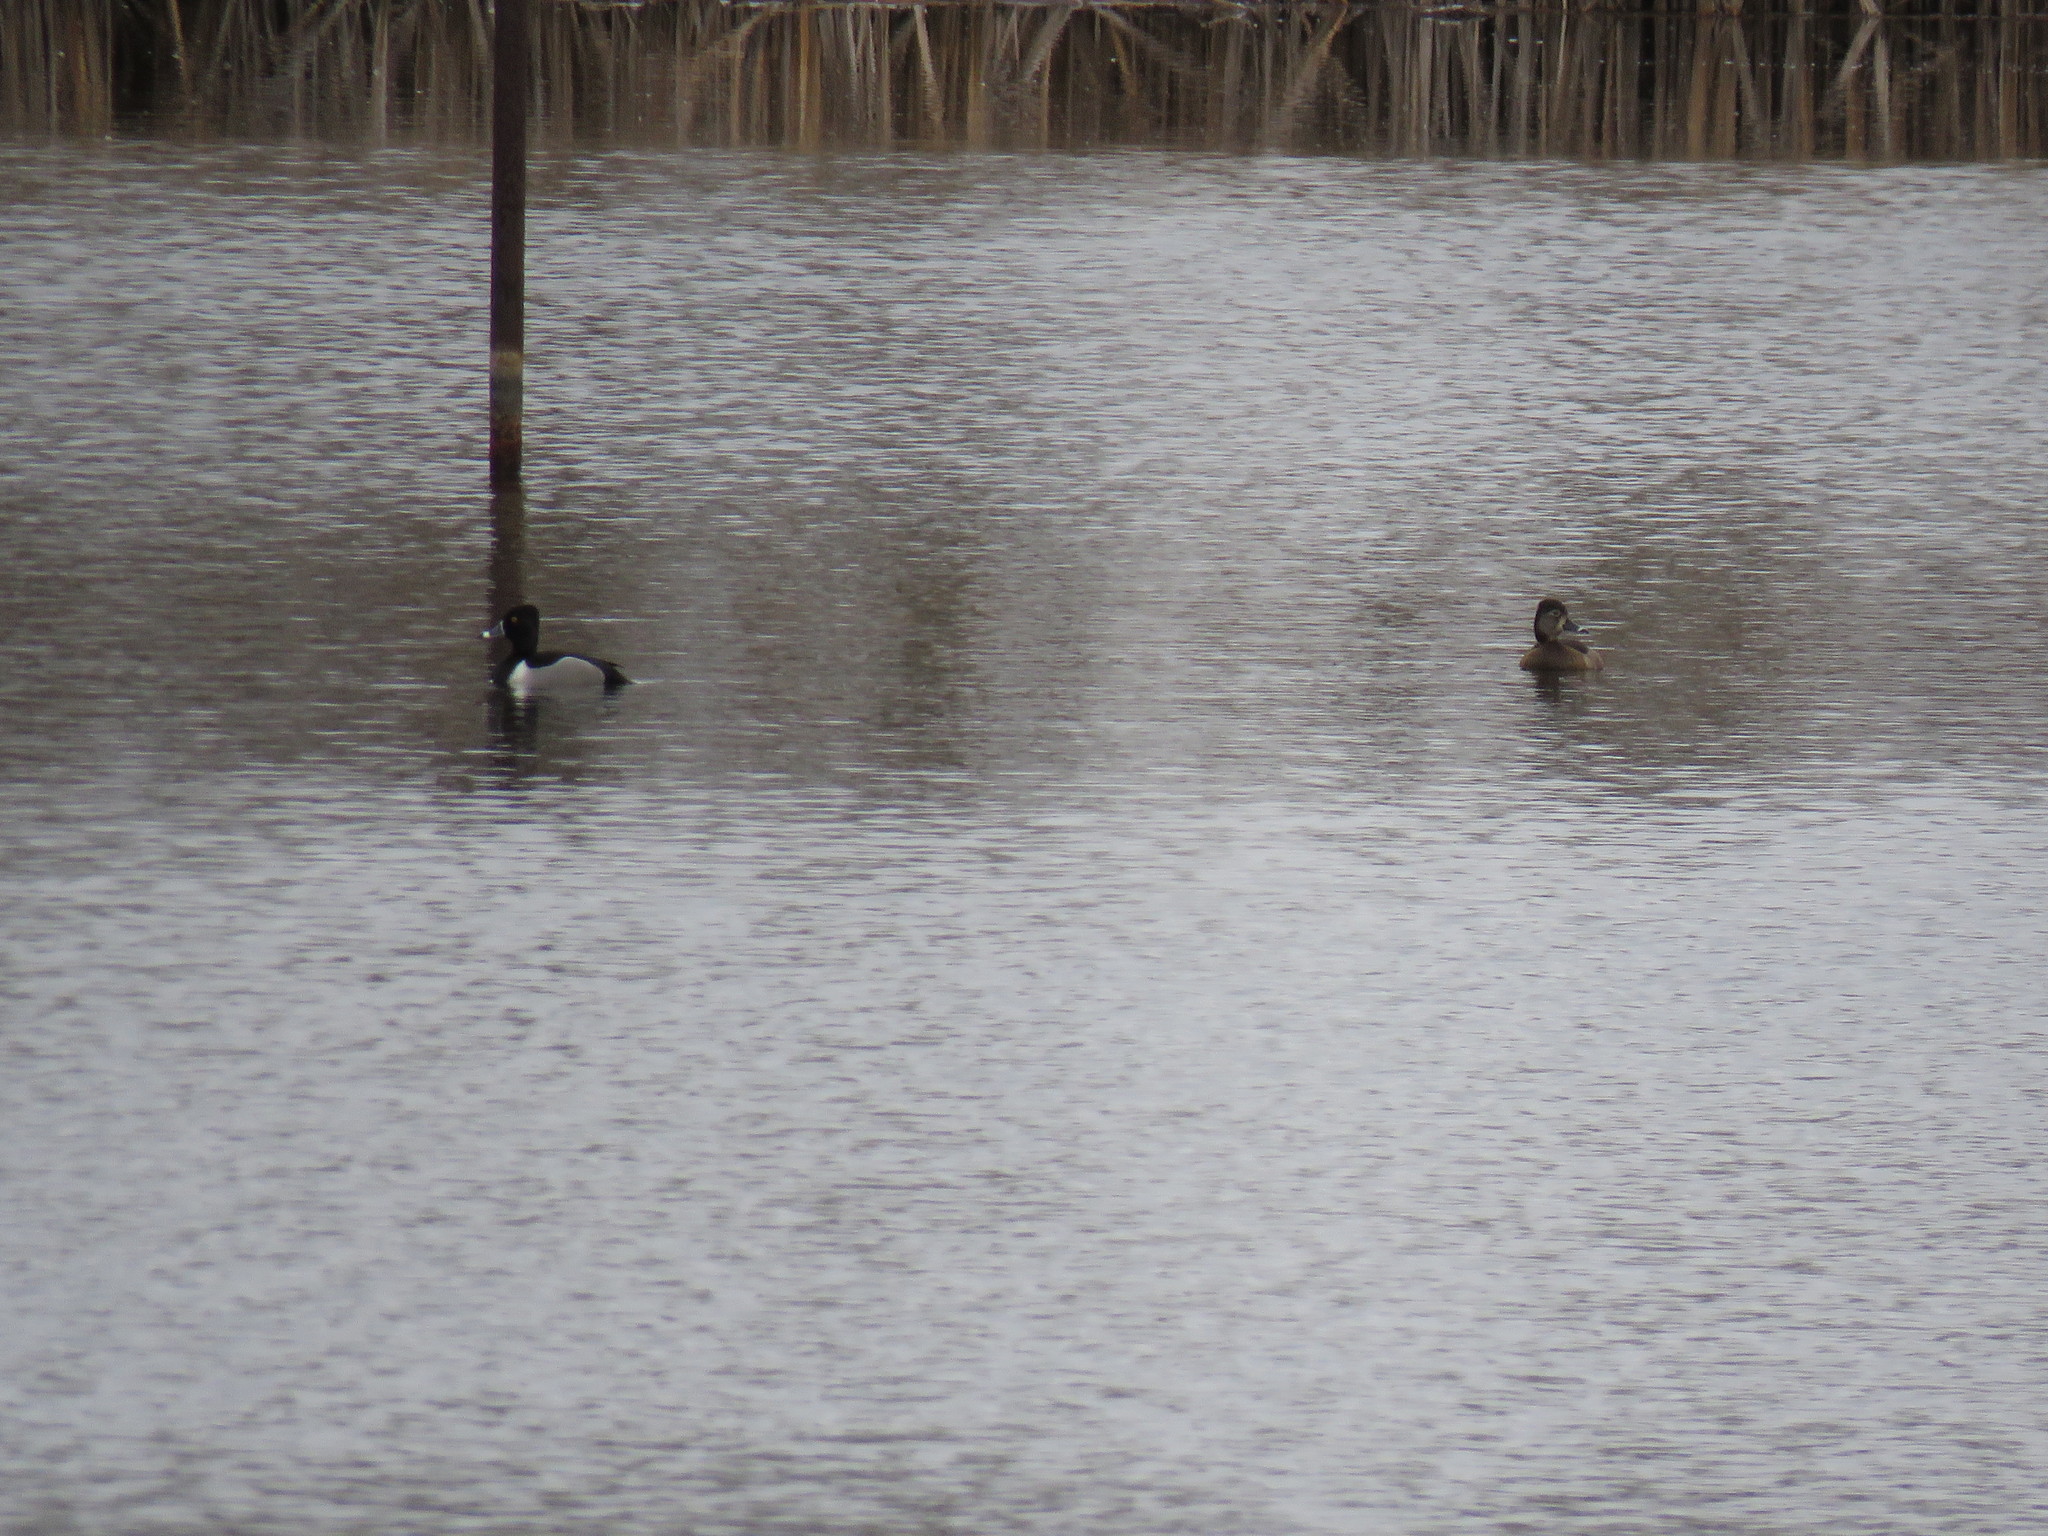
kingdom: Animalia
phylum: Chordata
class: Aves
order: Anseriformes
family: Anatidae
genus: Aythya
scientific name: Aythya collaris
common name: Ring-necked duck
